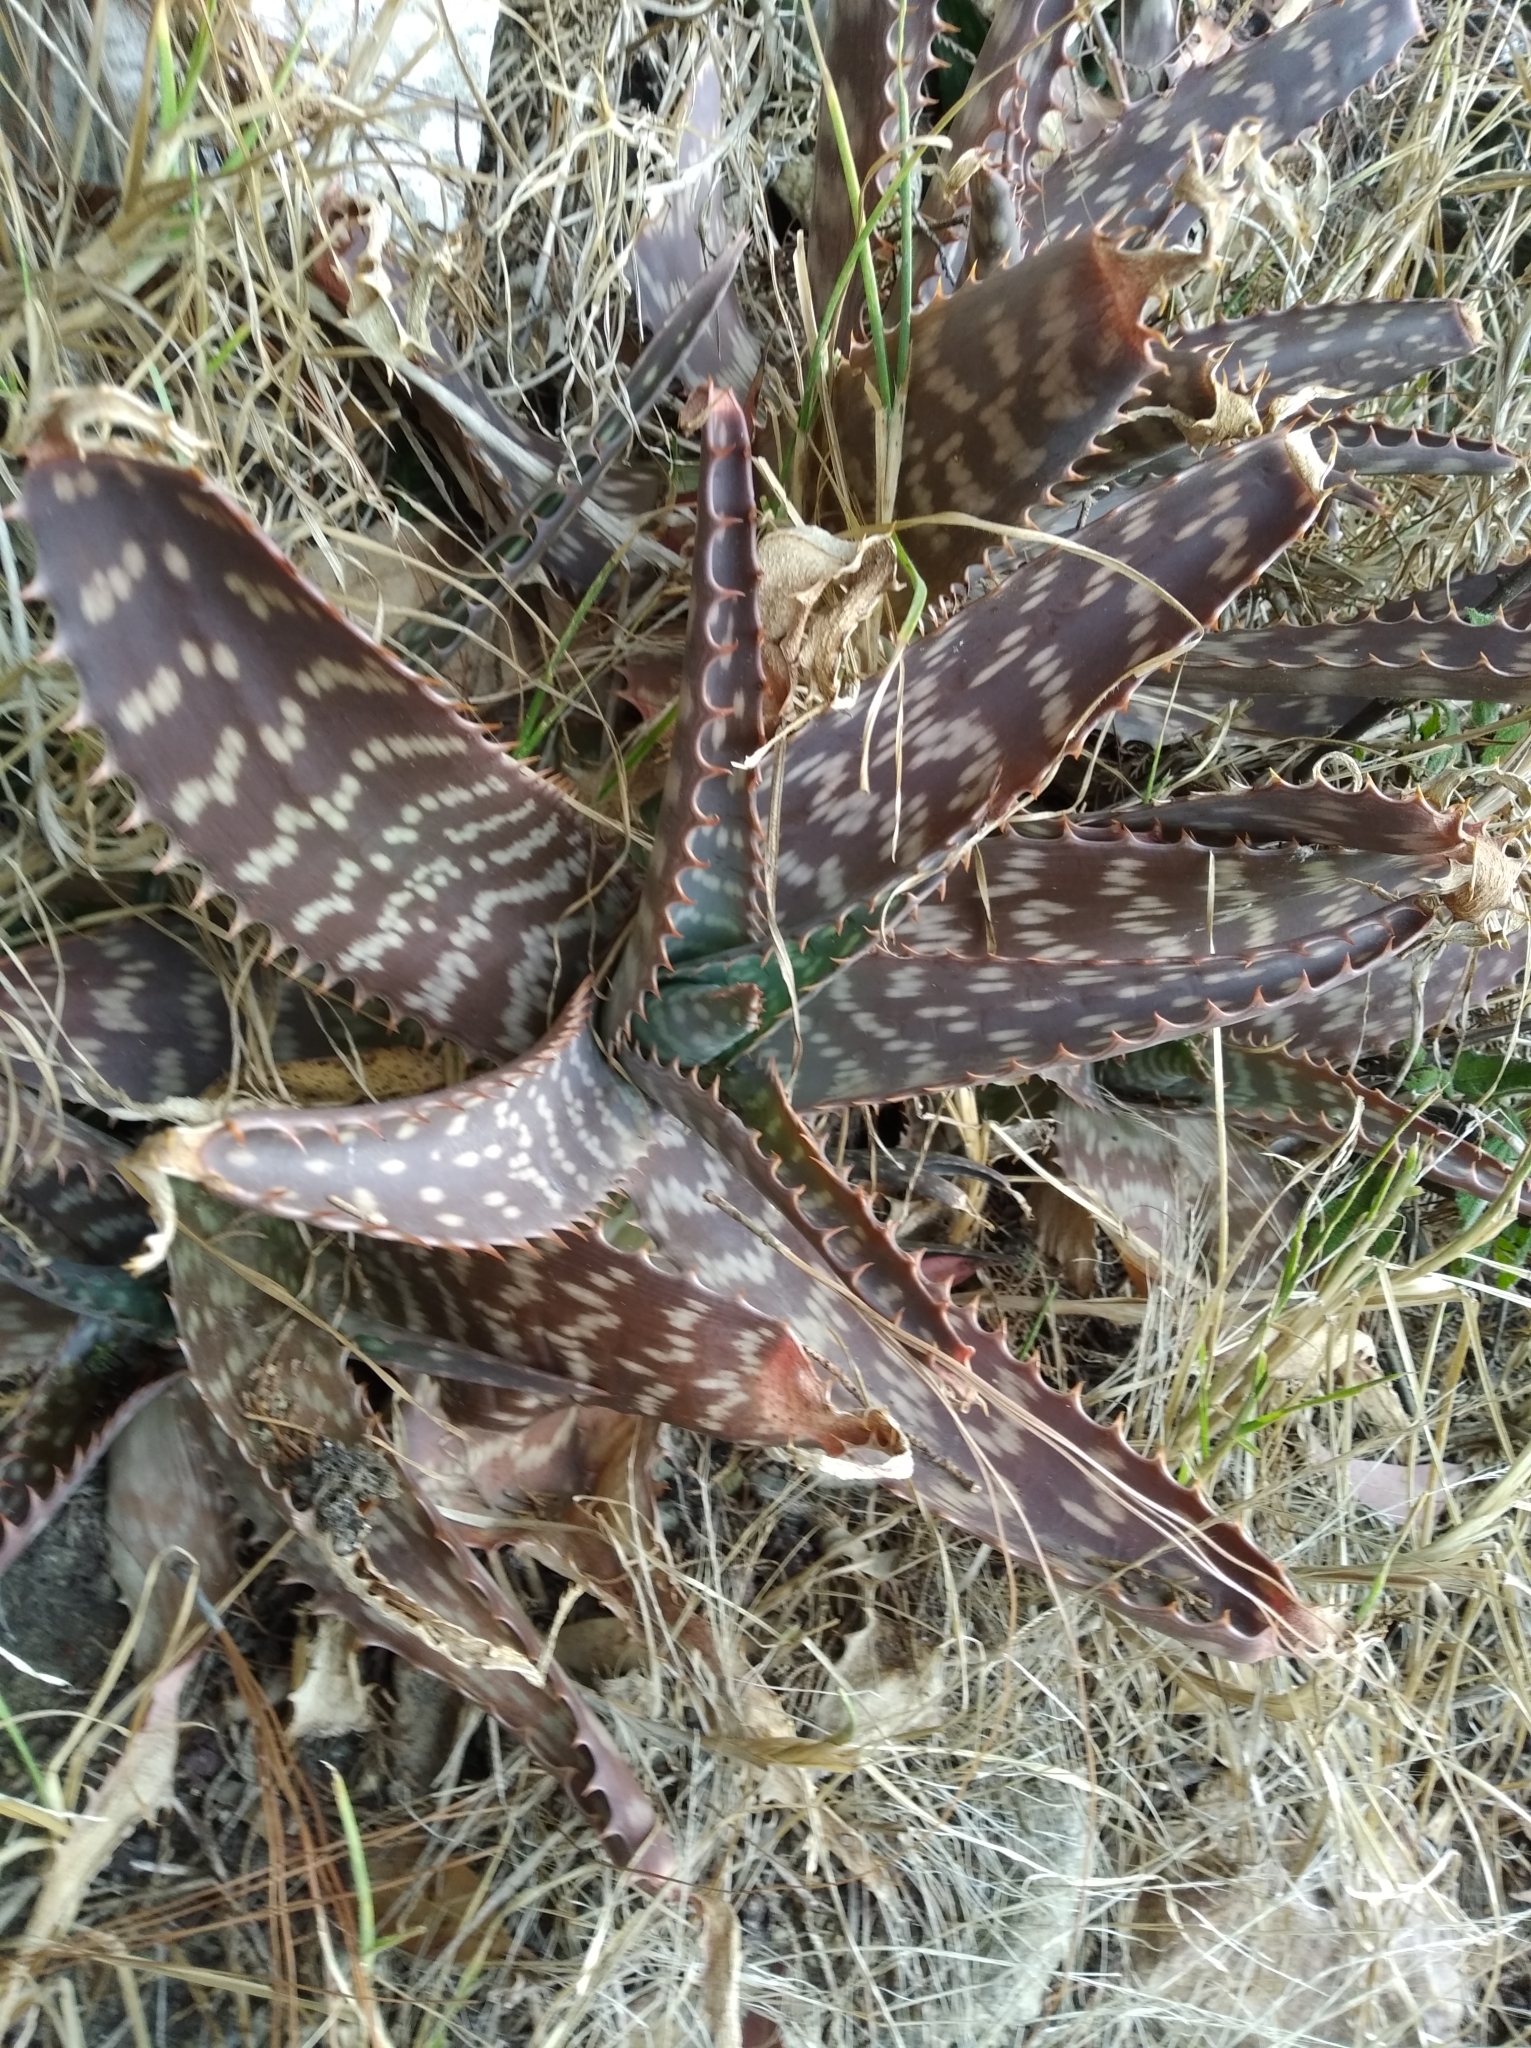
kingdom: Plantae
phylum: Tracheophyta
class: Liliopsida
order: Asparagales
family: Asphodelaceae
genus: Aloe
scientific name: Aloe maculata
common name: Broadleaf aloe
